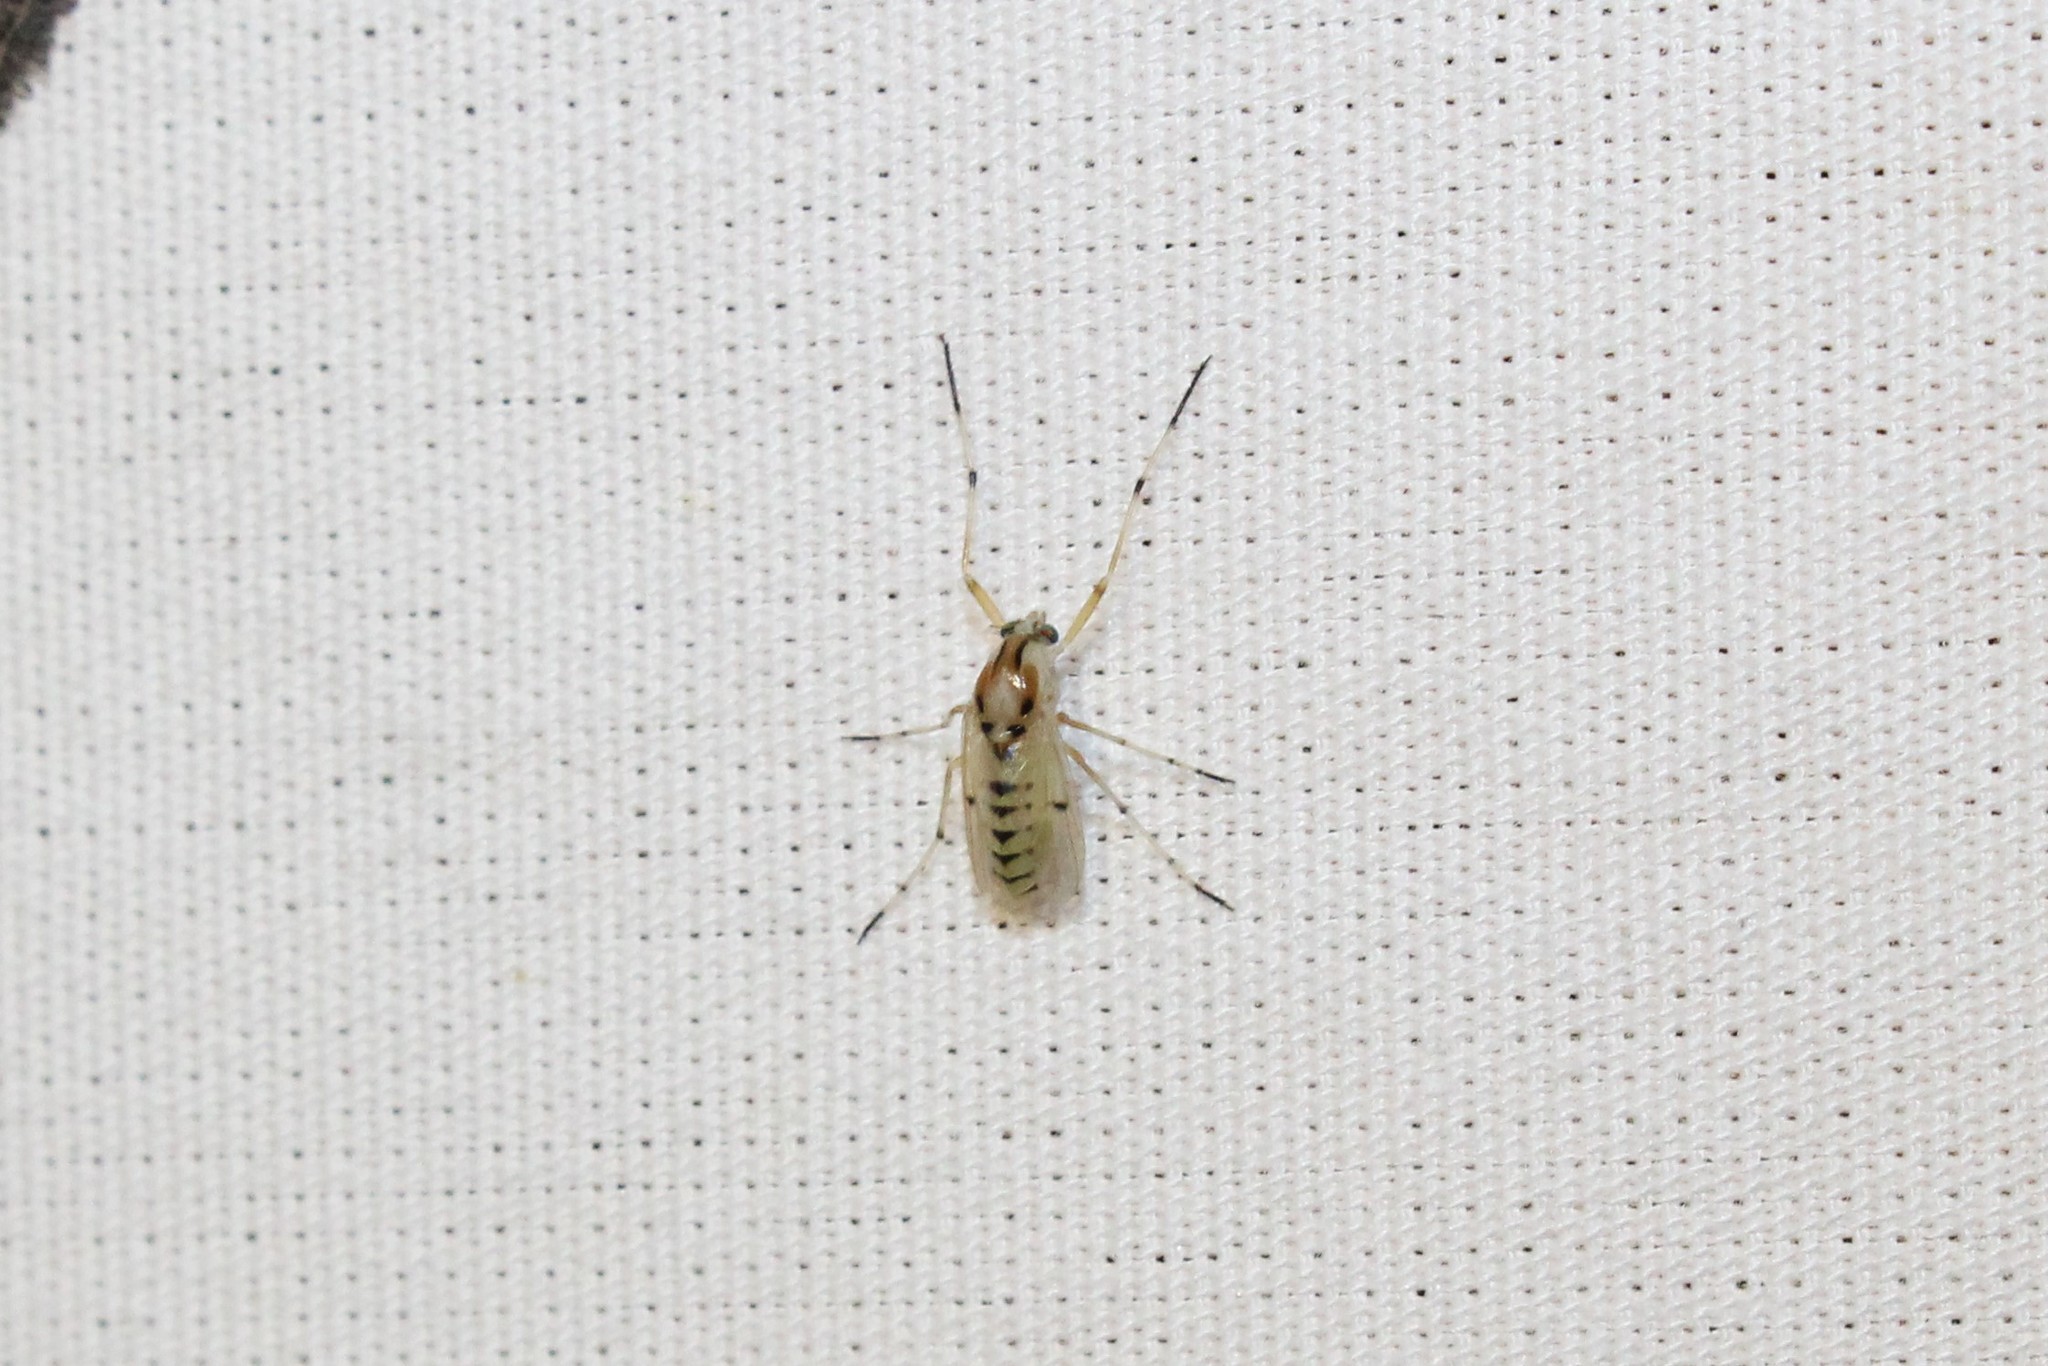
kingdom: Animalia
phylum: Arthropoda
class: Insecta
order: Diptera
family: Chironomidae
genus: Coelotanypus
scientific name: Coelotanypus concinnus
